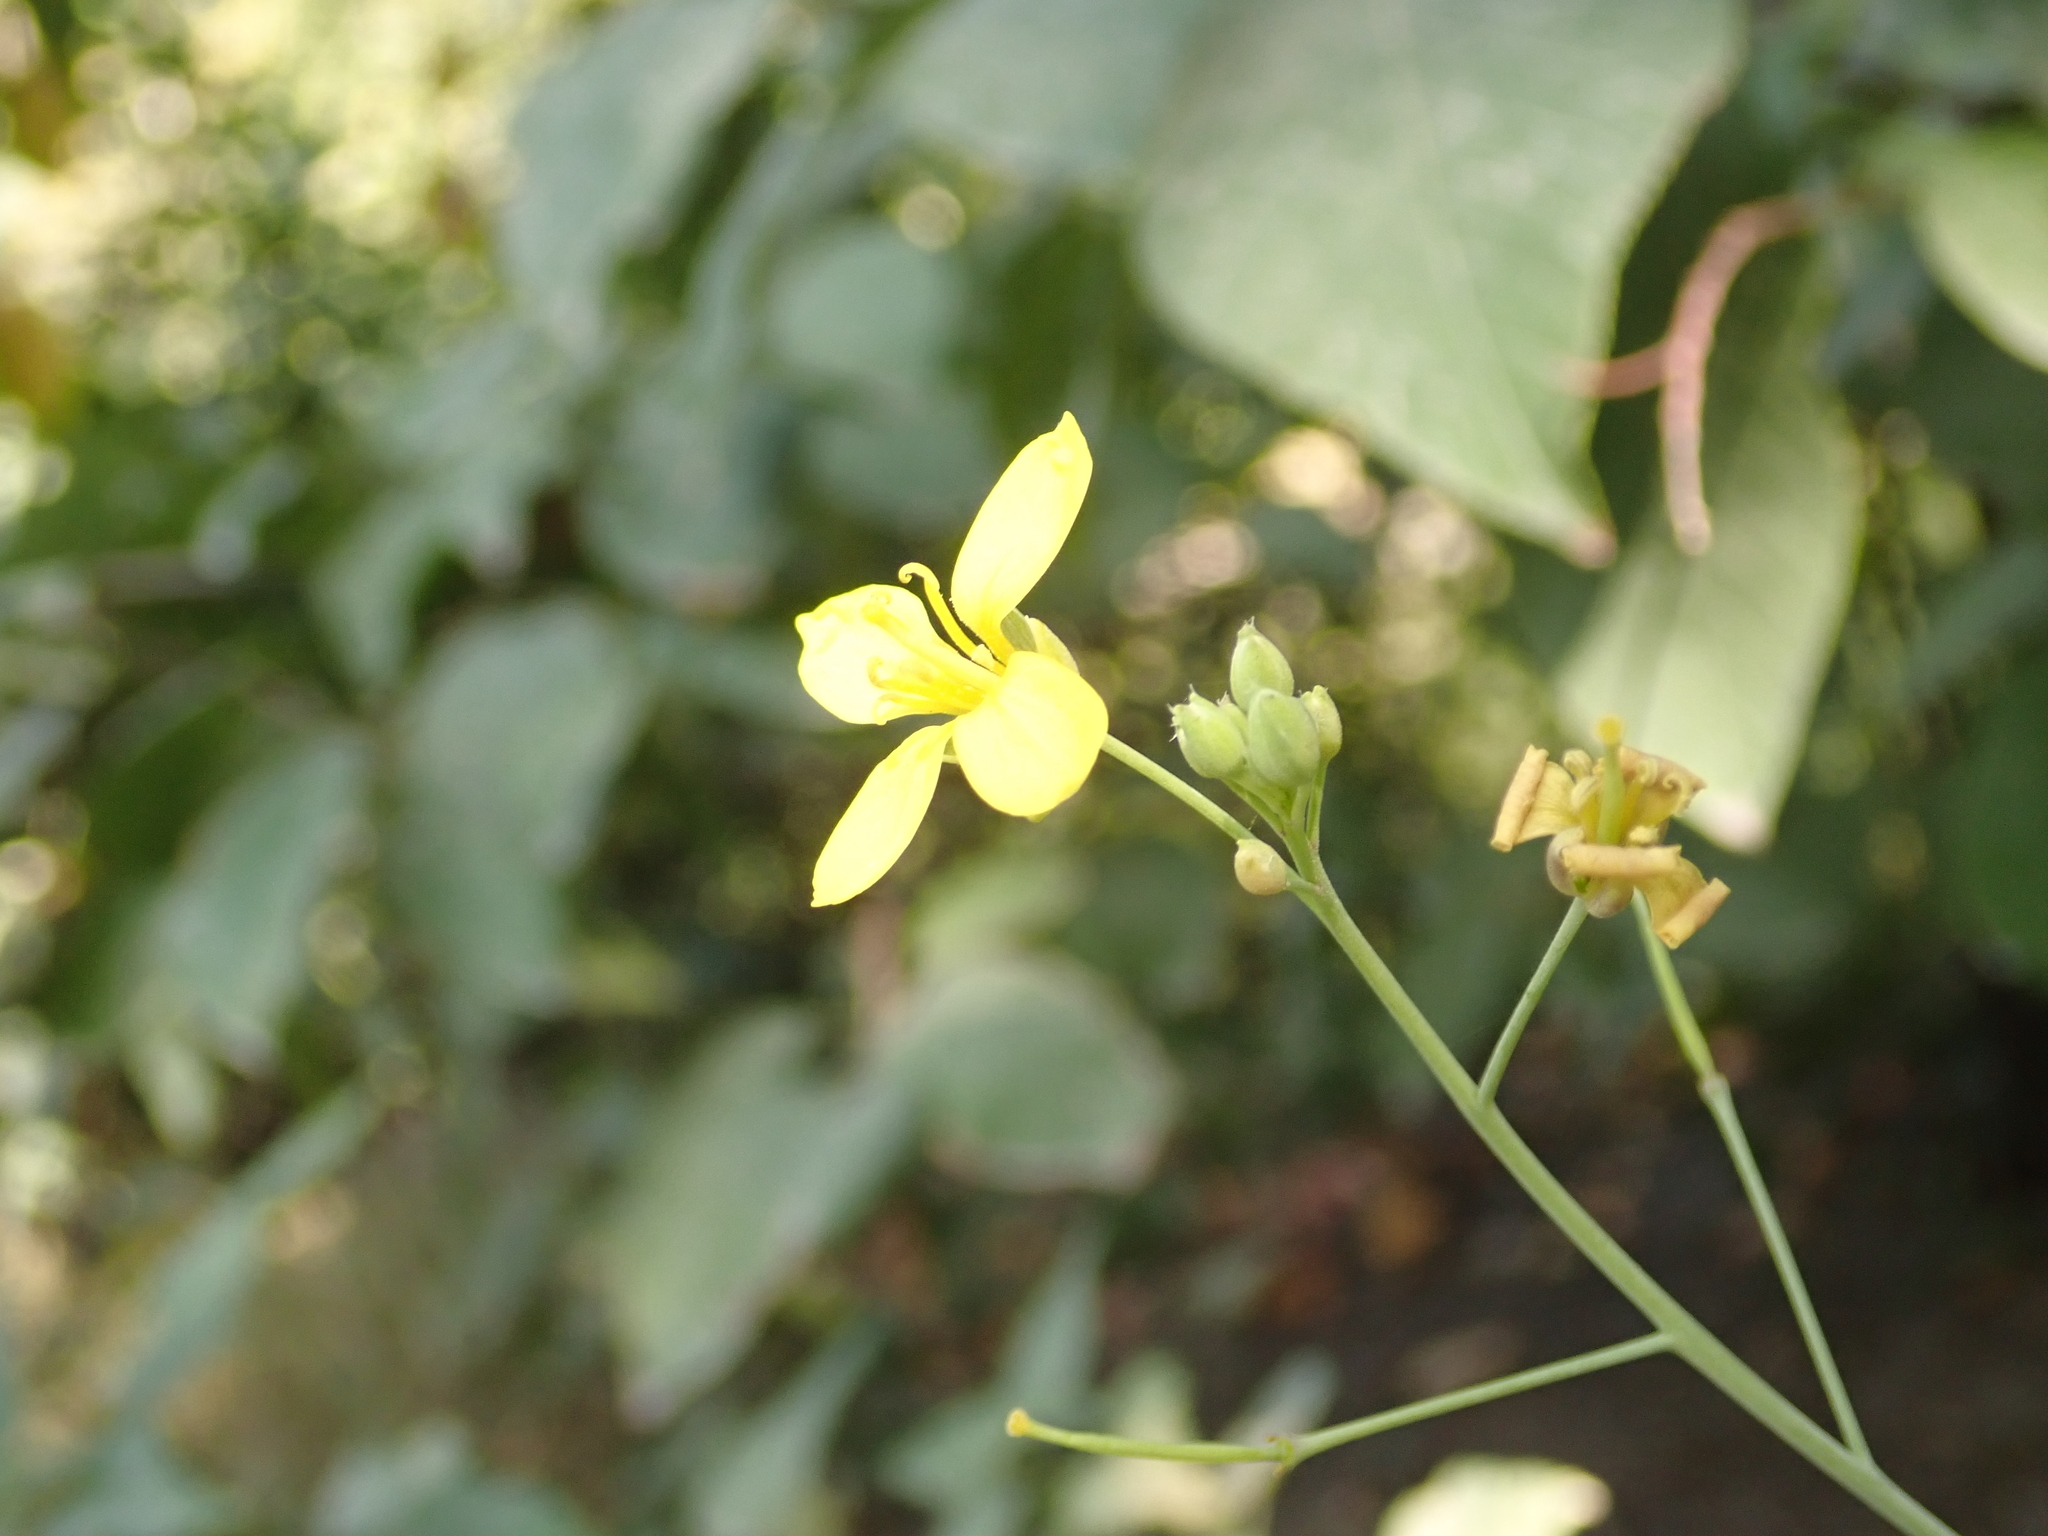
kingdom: Plantae
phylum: Tracheophyta
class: Magnoliopsida
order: Brassicales
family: Brassicaceae
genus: Diplotaxis
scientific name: Diplotaxis tenuifolia
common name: Perennial wall-rocket
